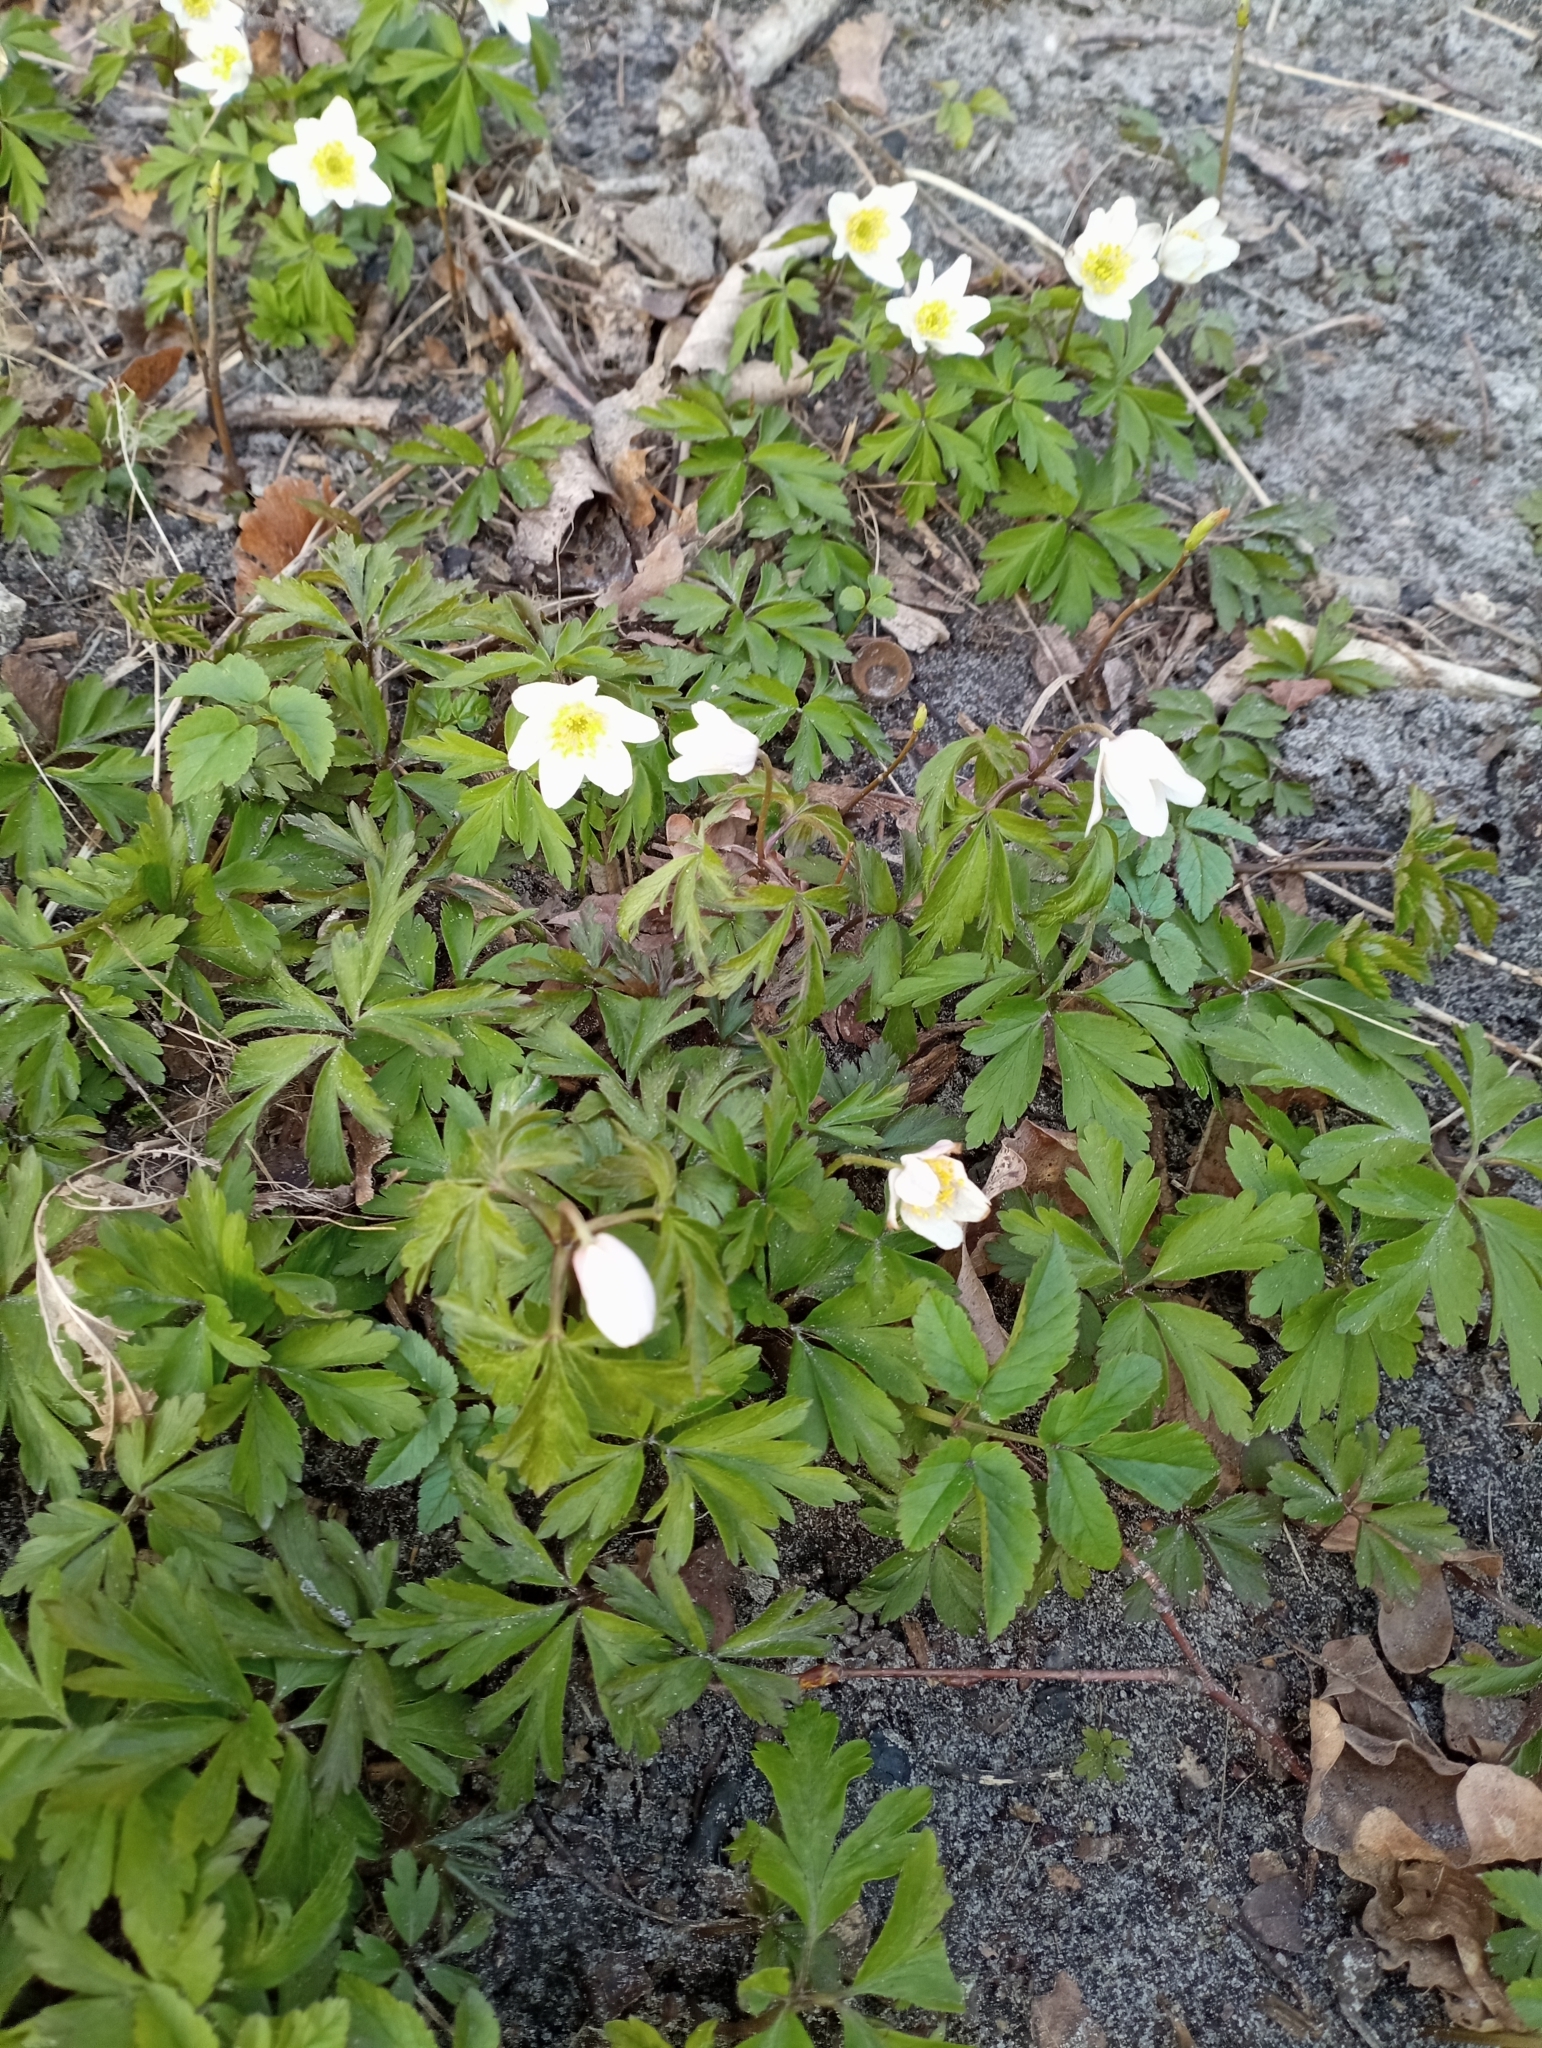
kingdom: Plantae
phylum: Tracheophyta
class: Magnoliopsida
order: Ranunculales
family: Ranunculaceae
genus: Anemone
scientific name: Anemone nemorosa
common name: Wood anemone
